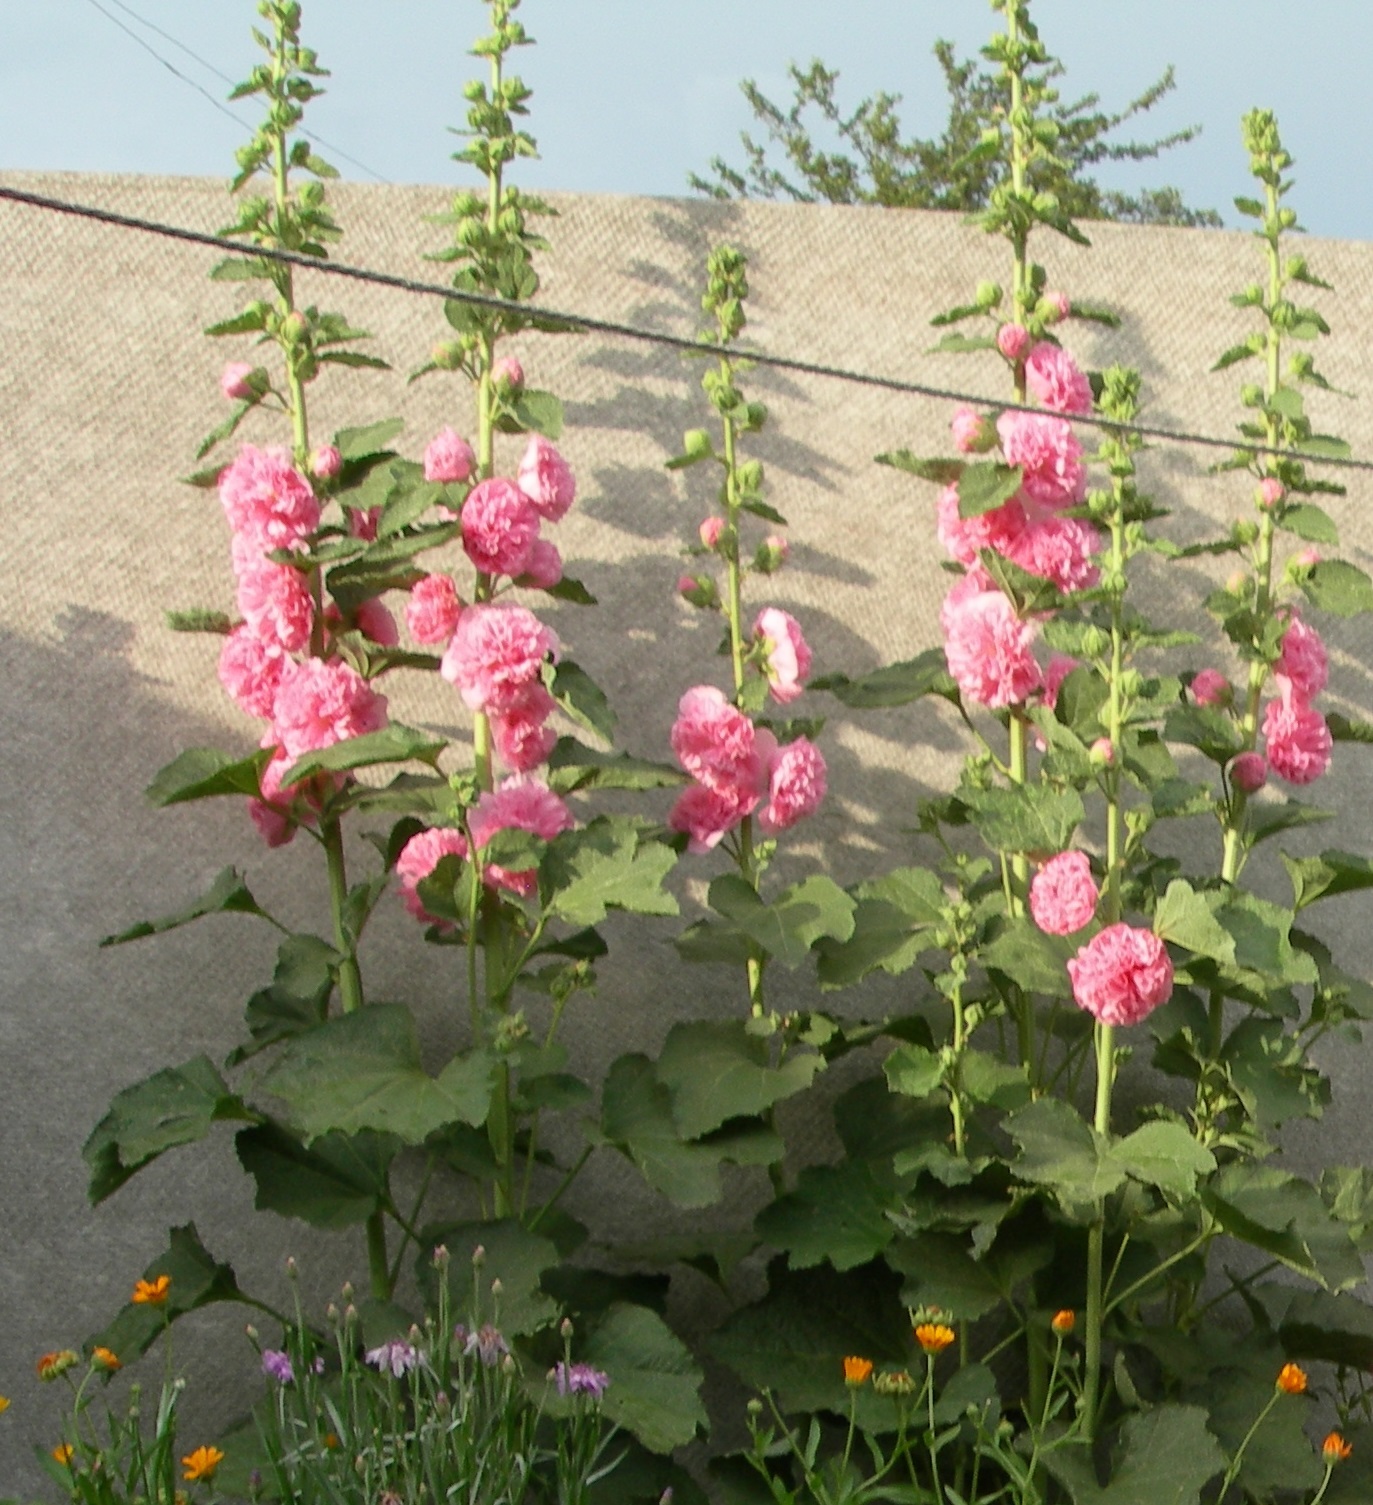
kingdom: Plantae
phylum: Tracheophyta
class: Magnoliopsida
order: Malvales
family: Malvaceae
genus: Alcea
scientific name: Alcea rosea
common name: Hollyhock
